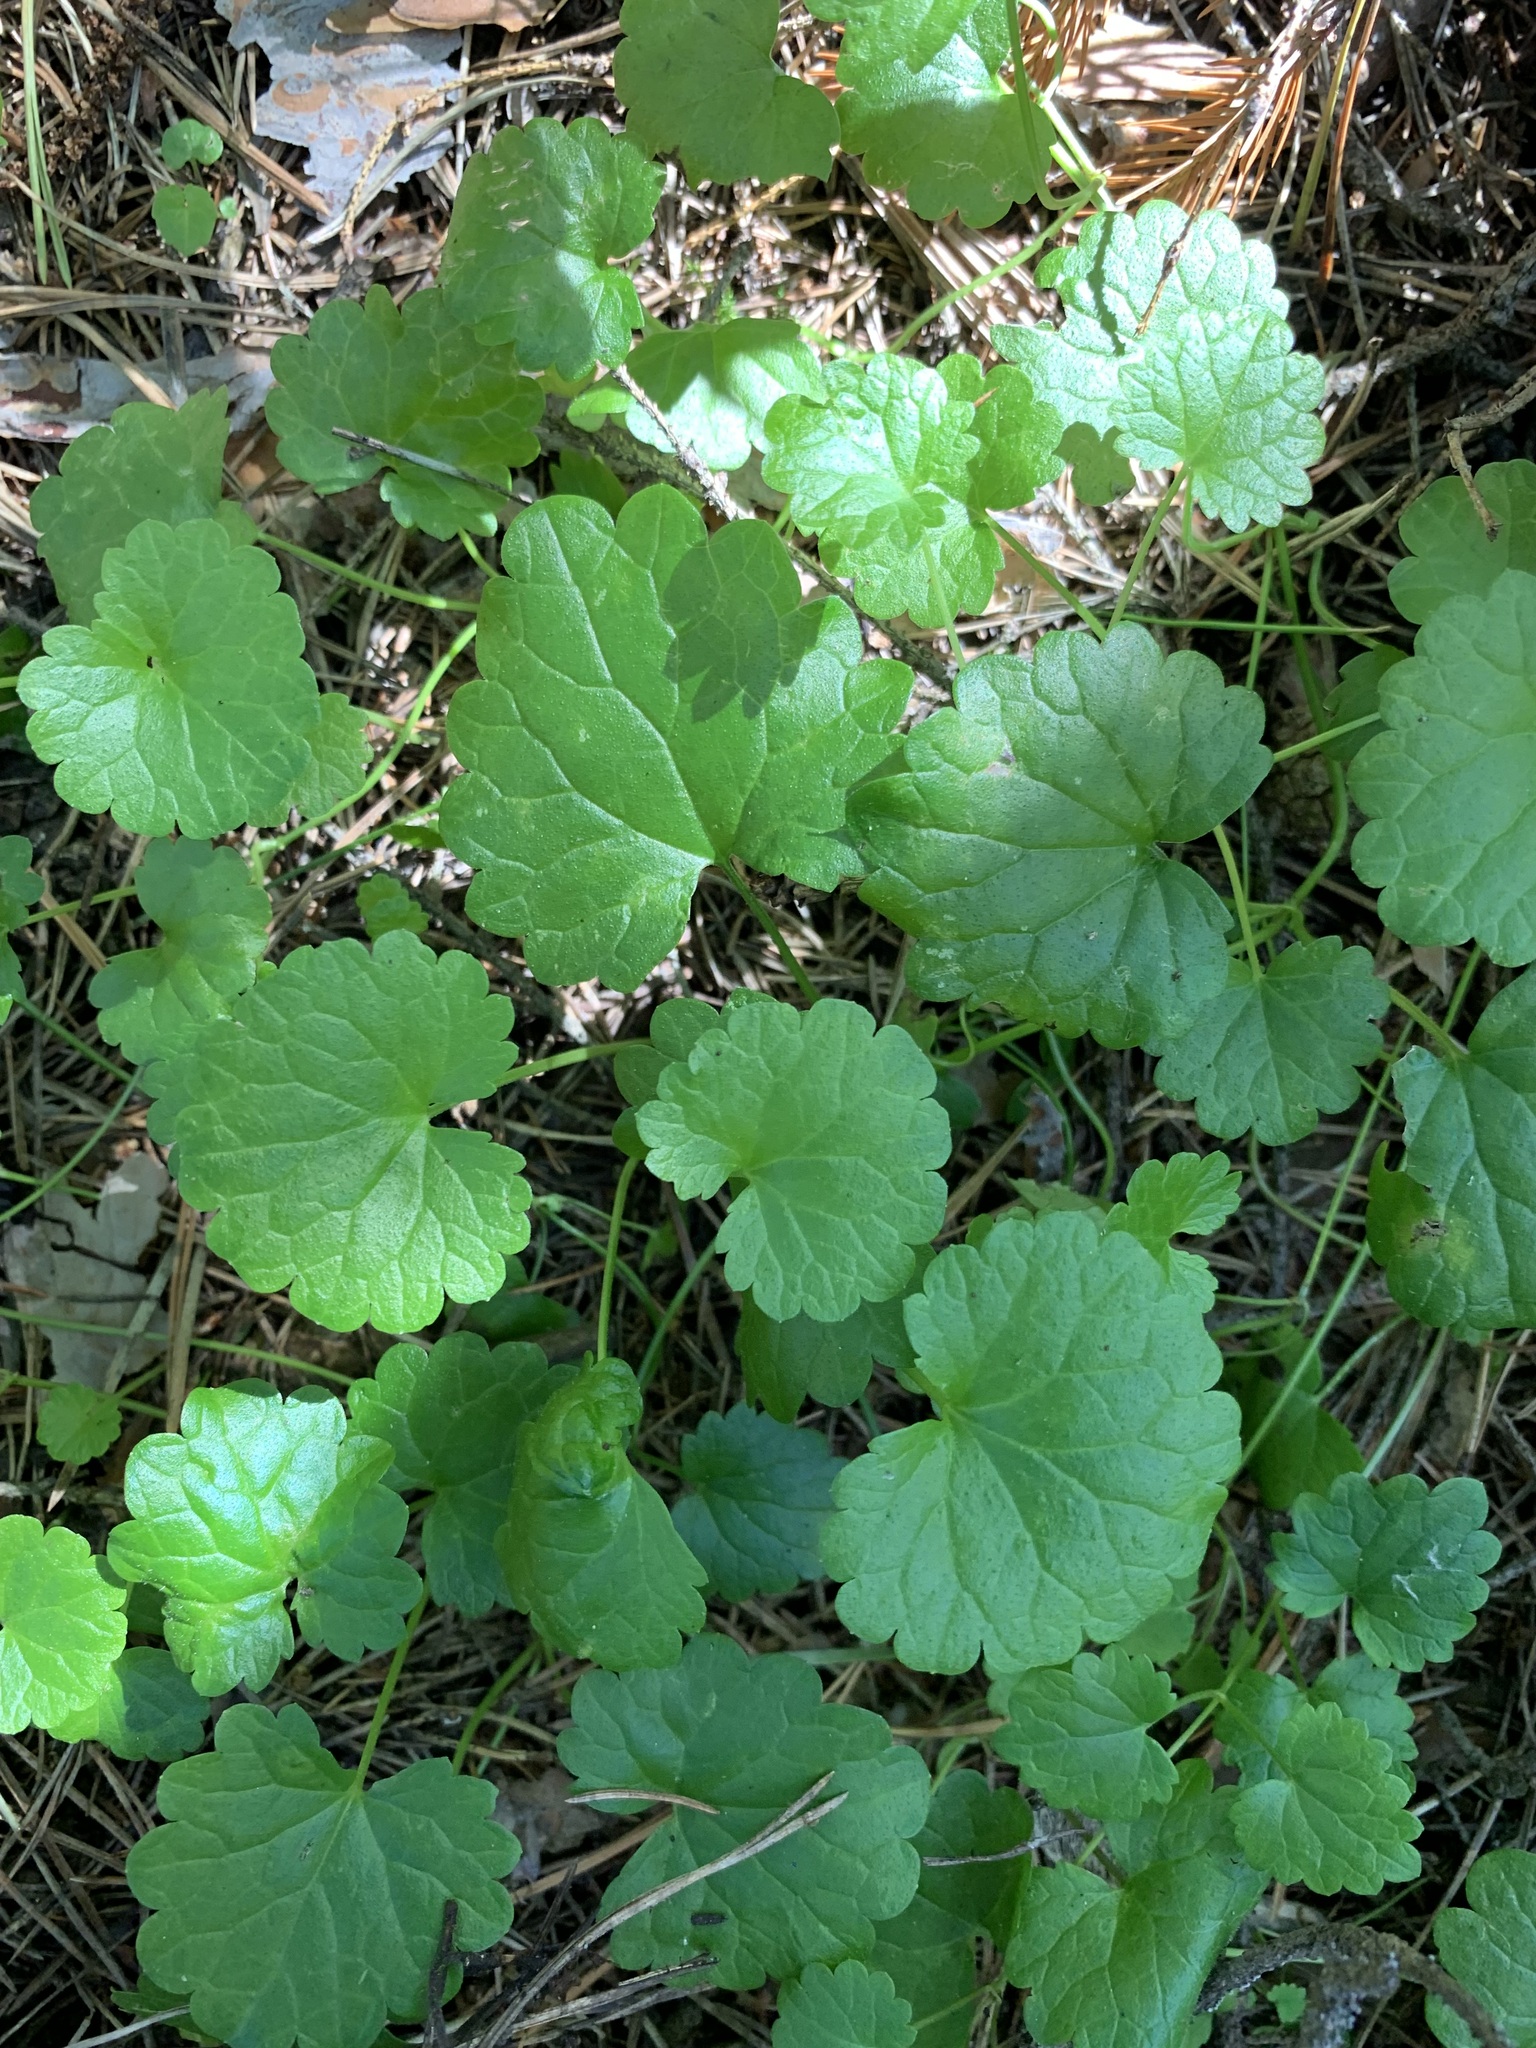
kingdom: Plantae
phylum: Tracheophyta
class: Magnoliopsida
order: Lamiales
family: Lamiaceae
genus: Glechoma
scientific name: Glechoma hederacea
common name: Ground ivy
